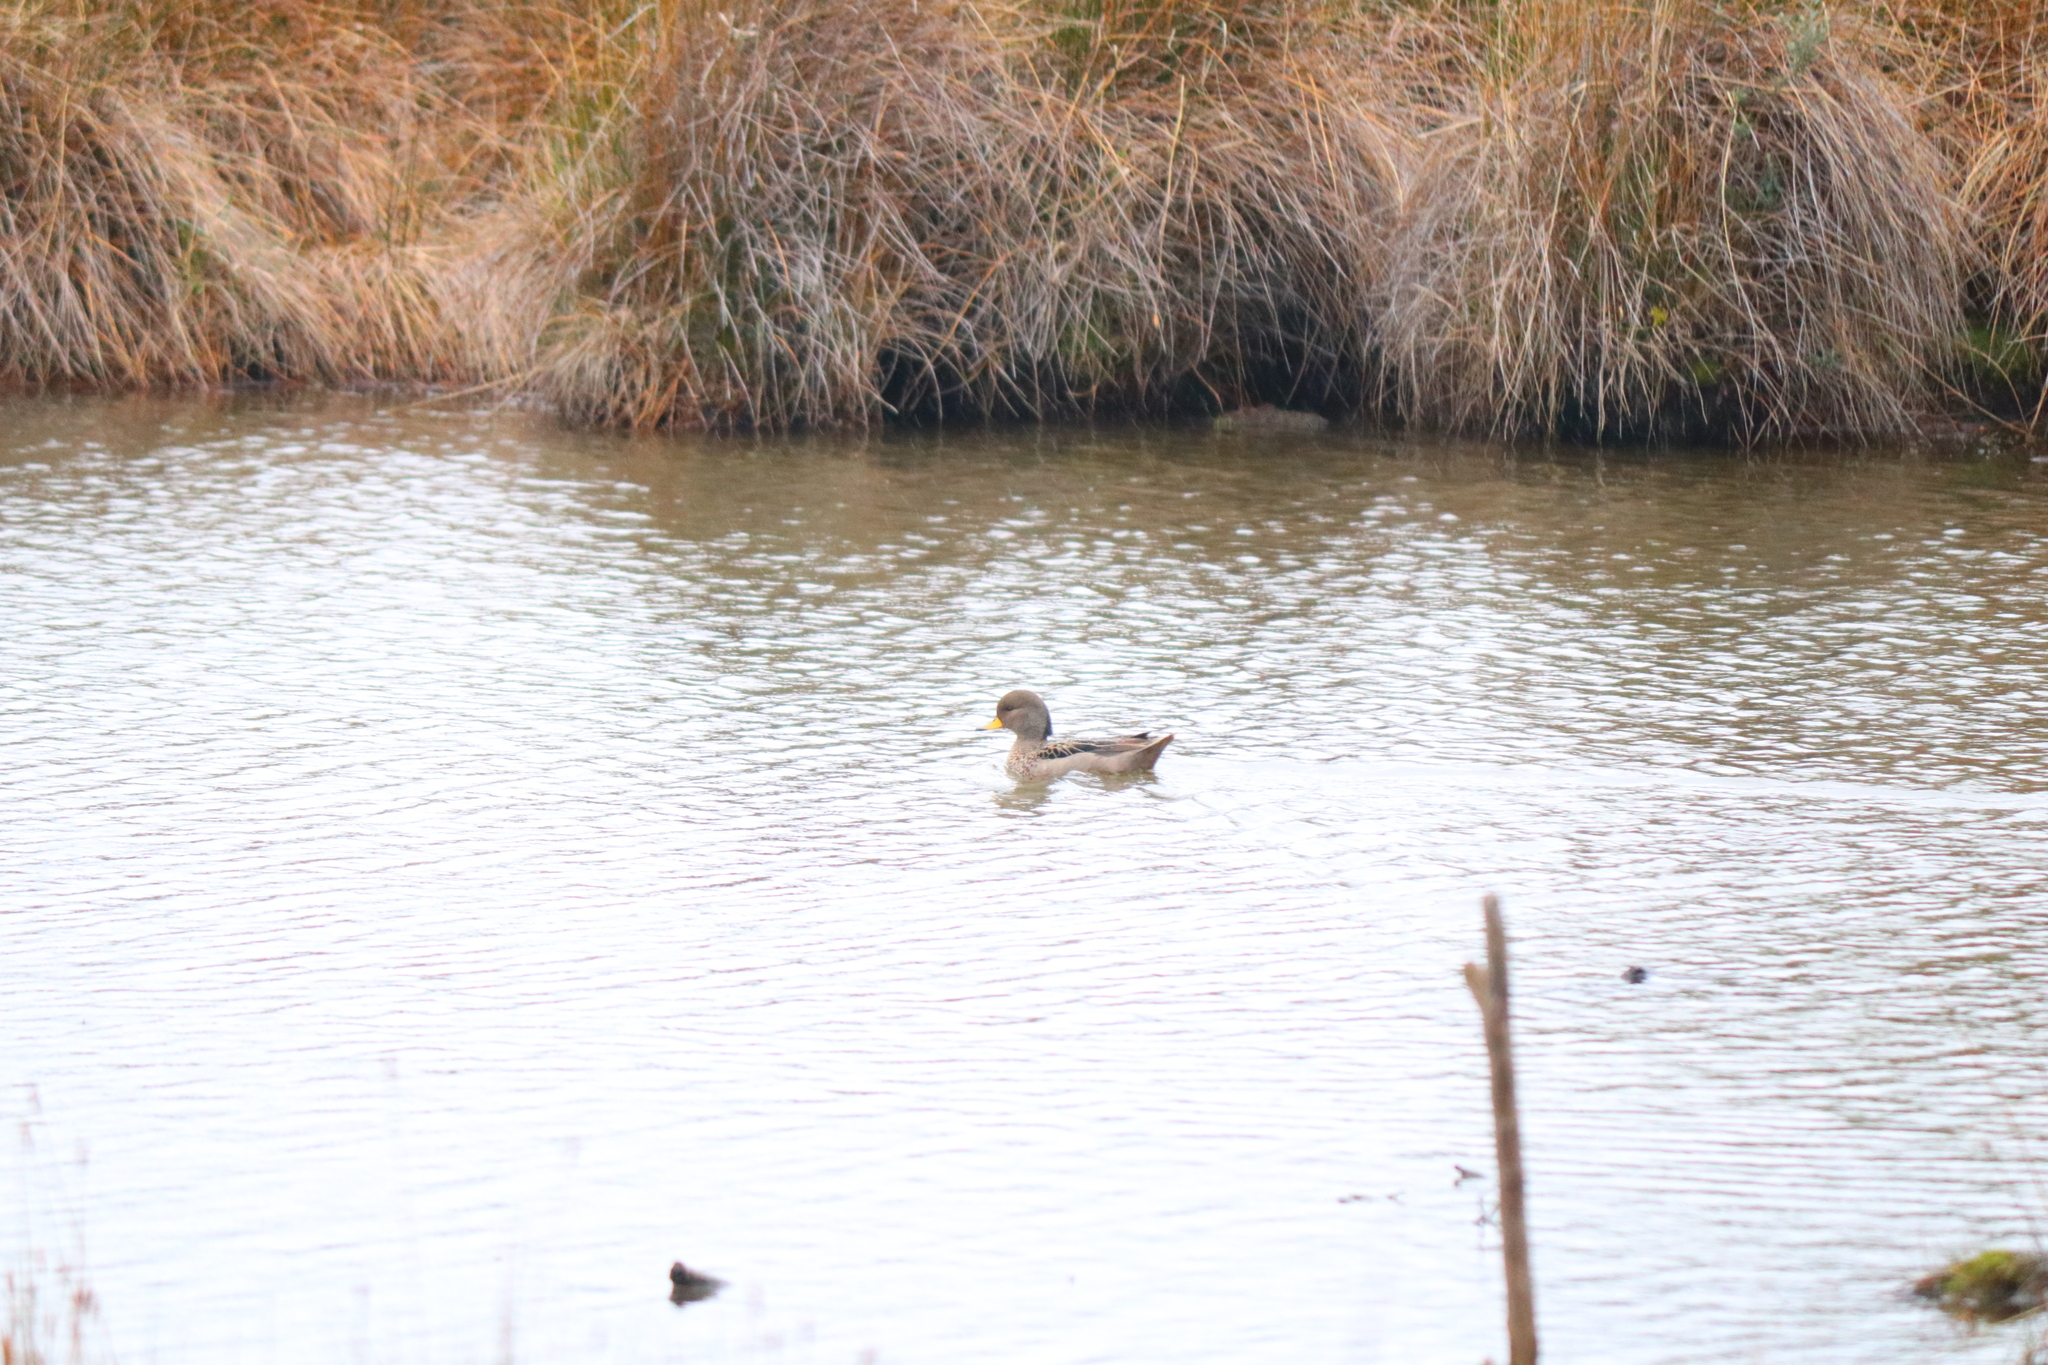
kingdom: Animalia
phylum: Chordata
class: Aves
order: Anseriformes
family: Anatidae
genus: Anas
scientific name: Anas flavirostris
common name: Yellow-billed teal
